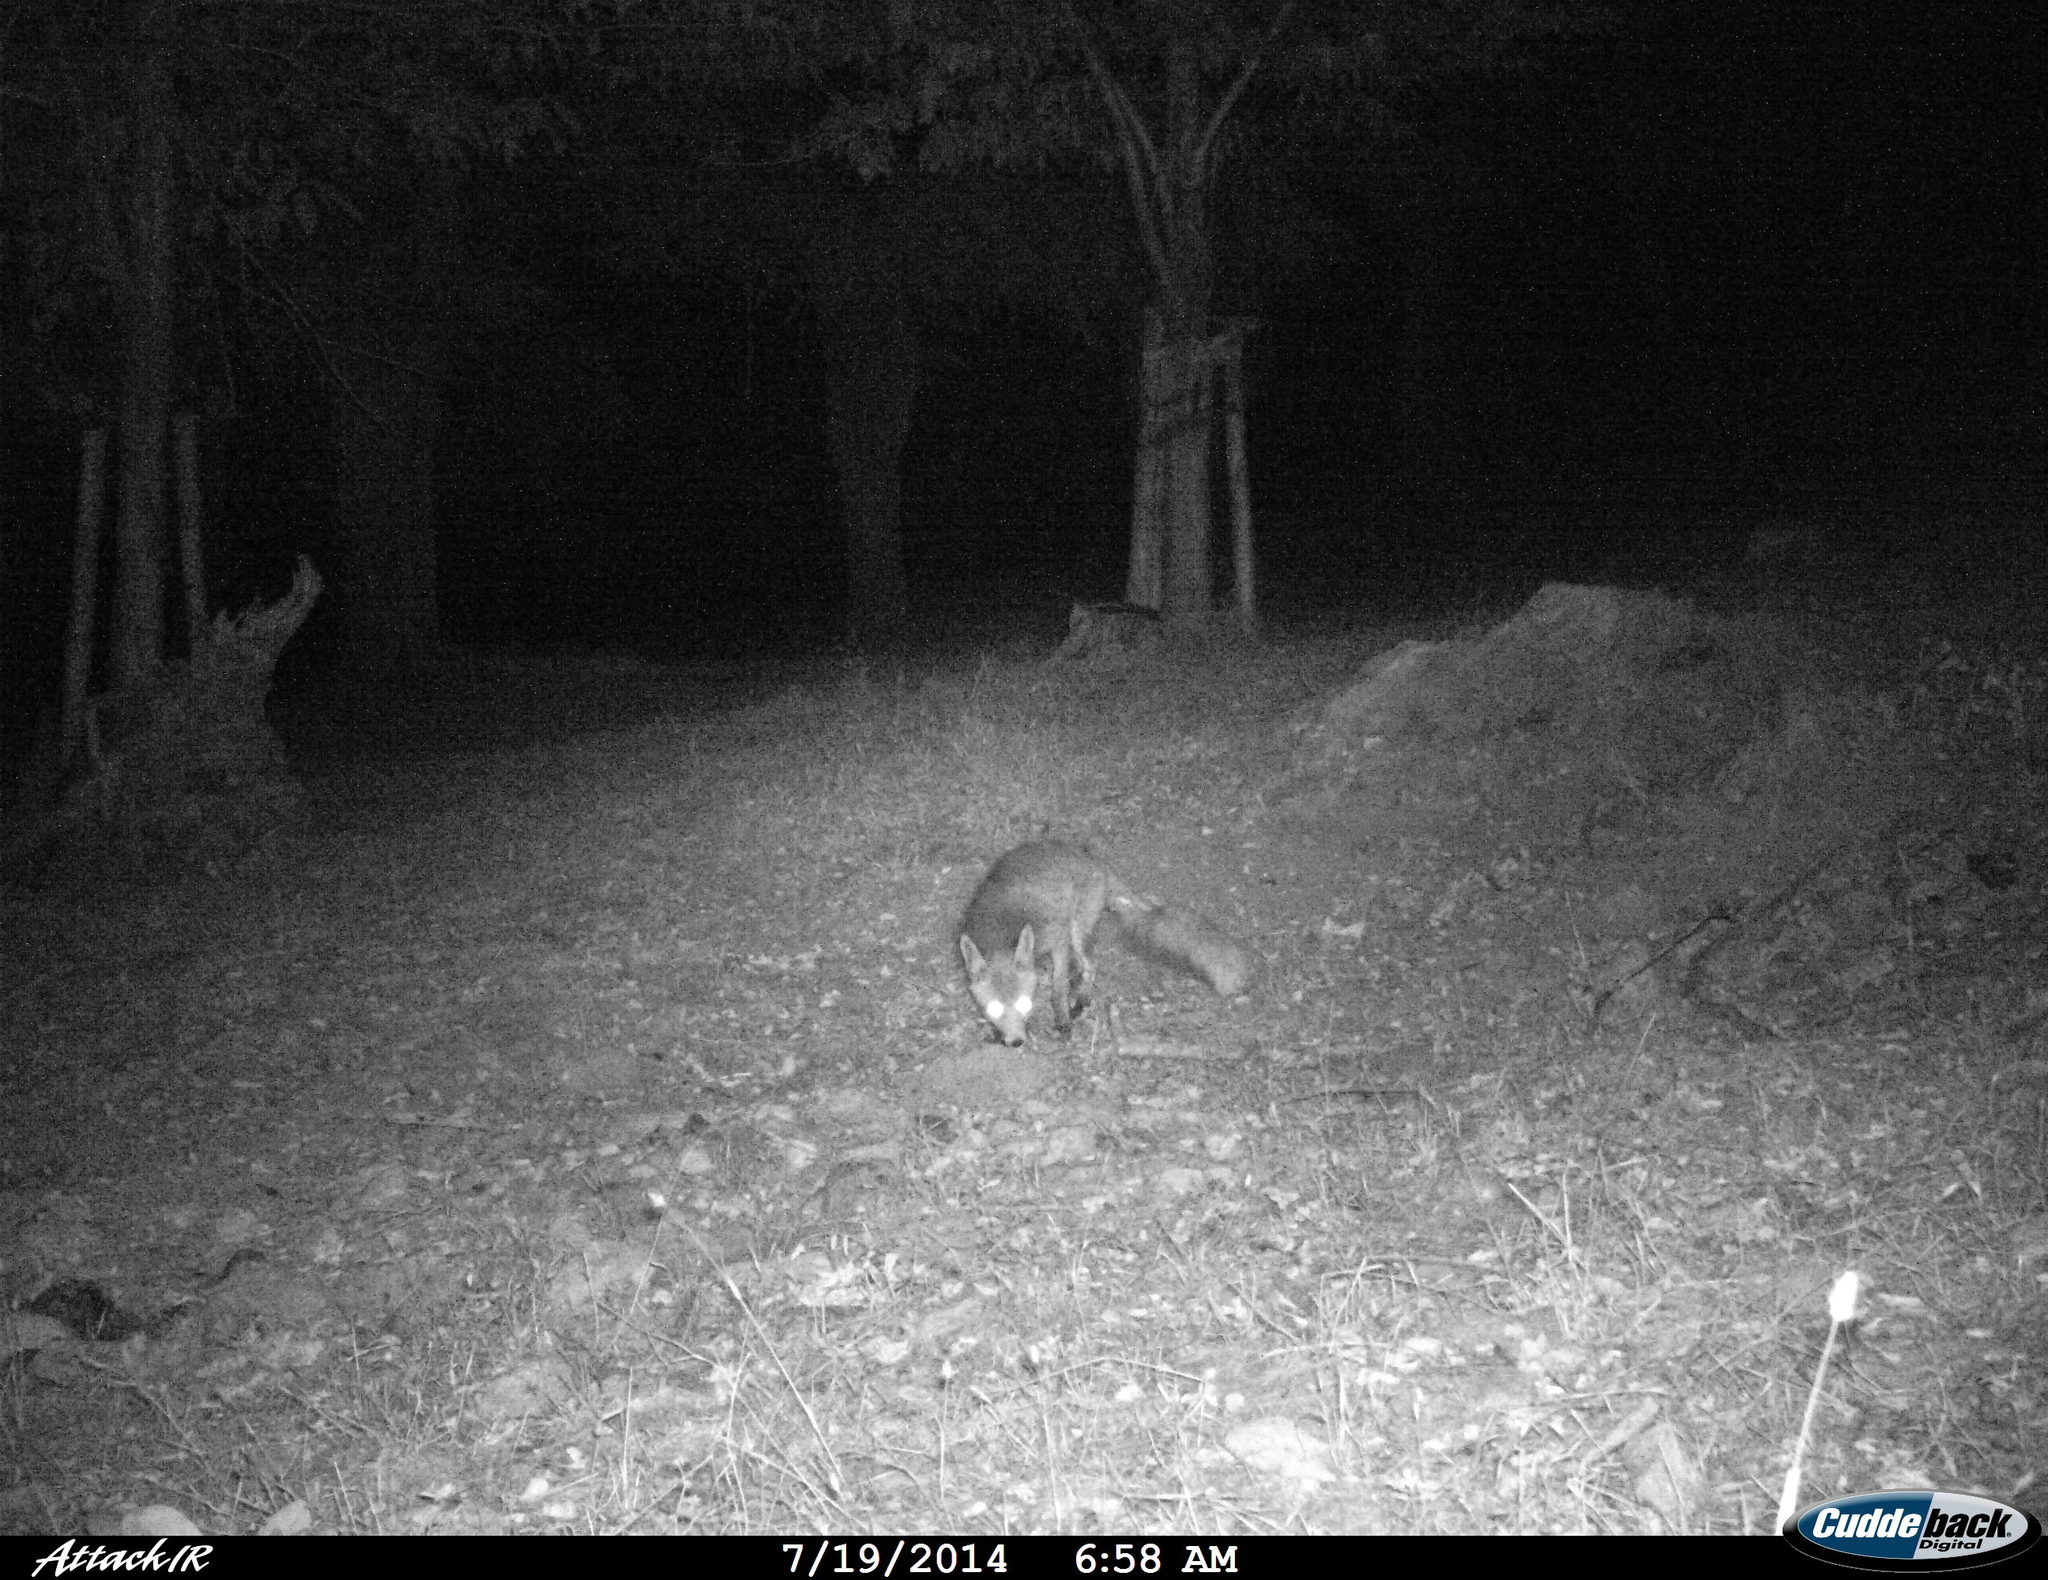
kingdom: Animalia
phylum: Chordata
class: Mammalia
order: Carnivora
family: Canidae
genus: Vulpes
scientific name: Vulpes vulpes
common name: Red fox
